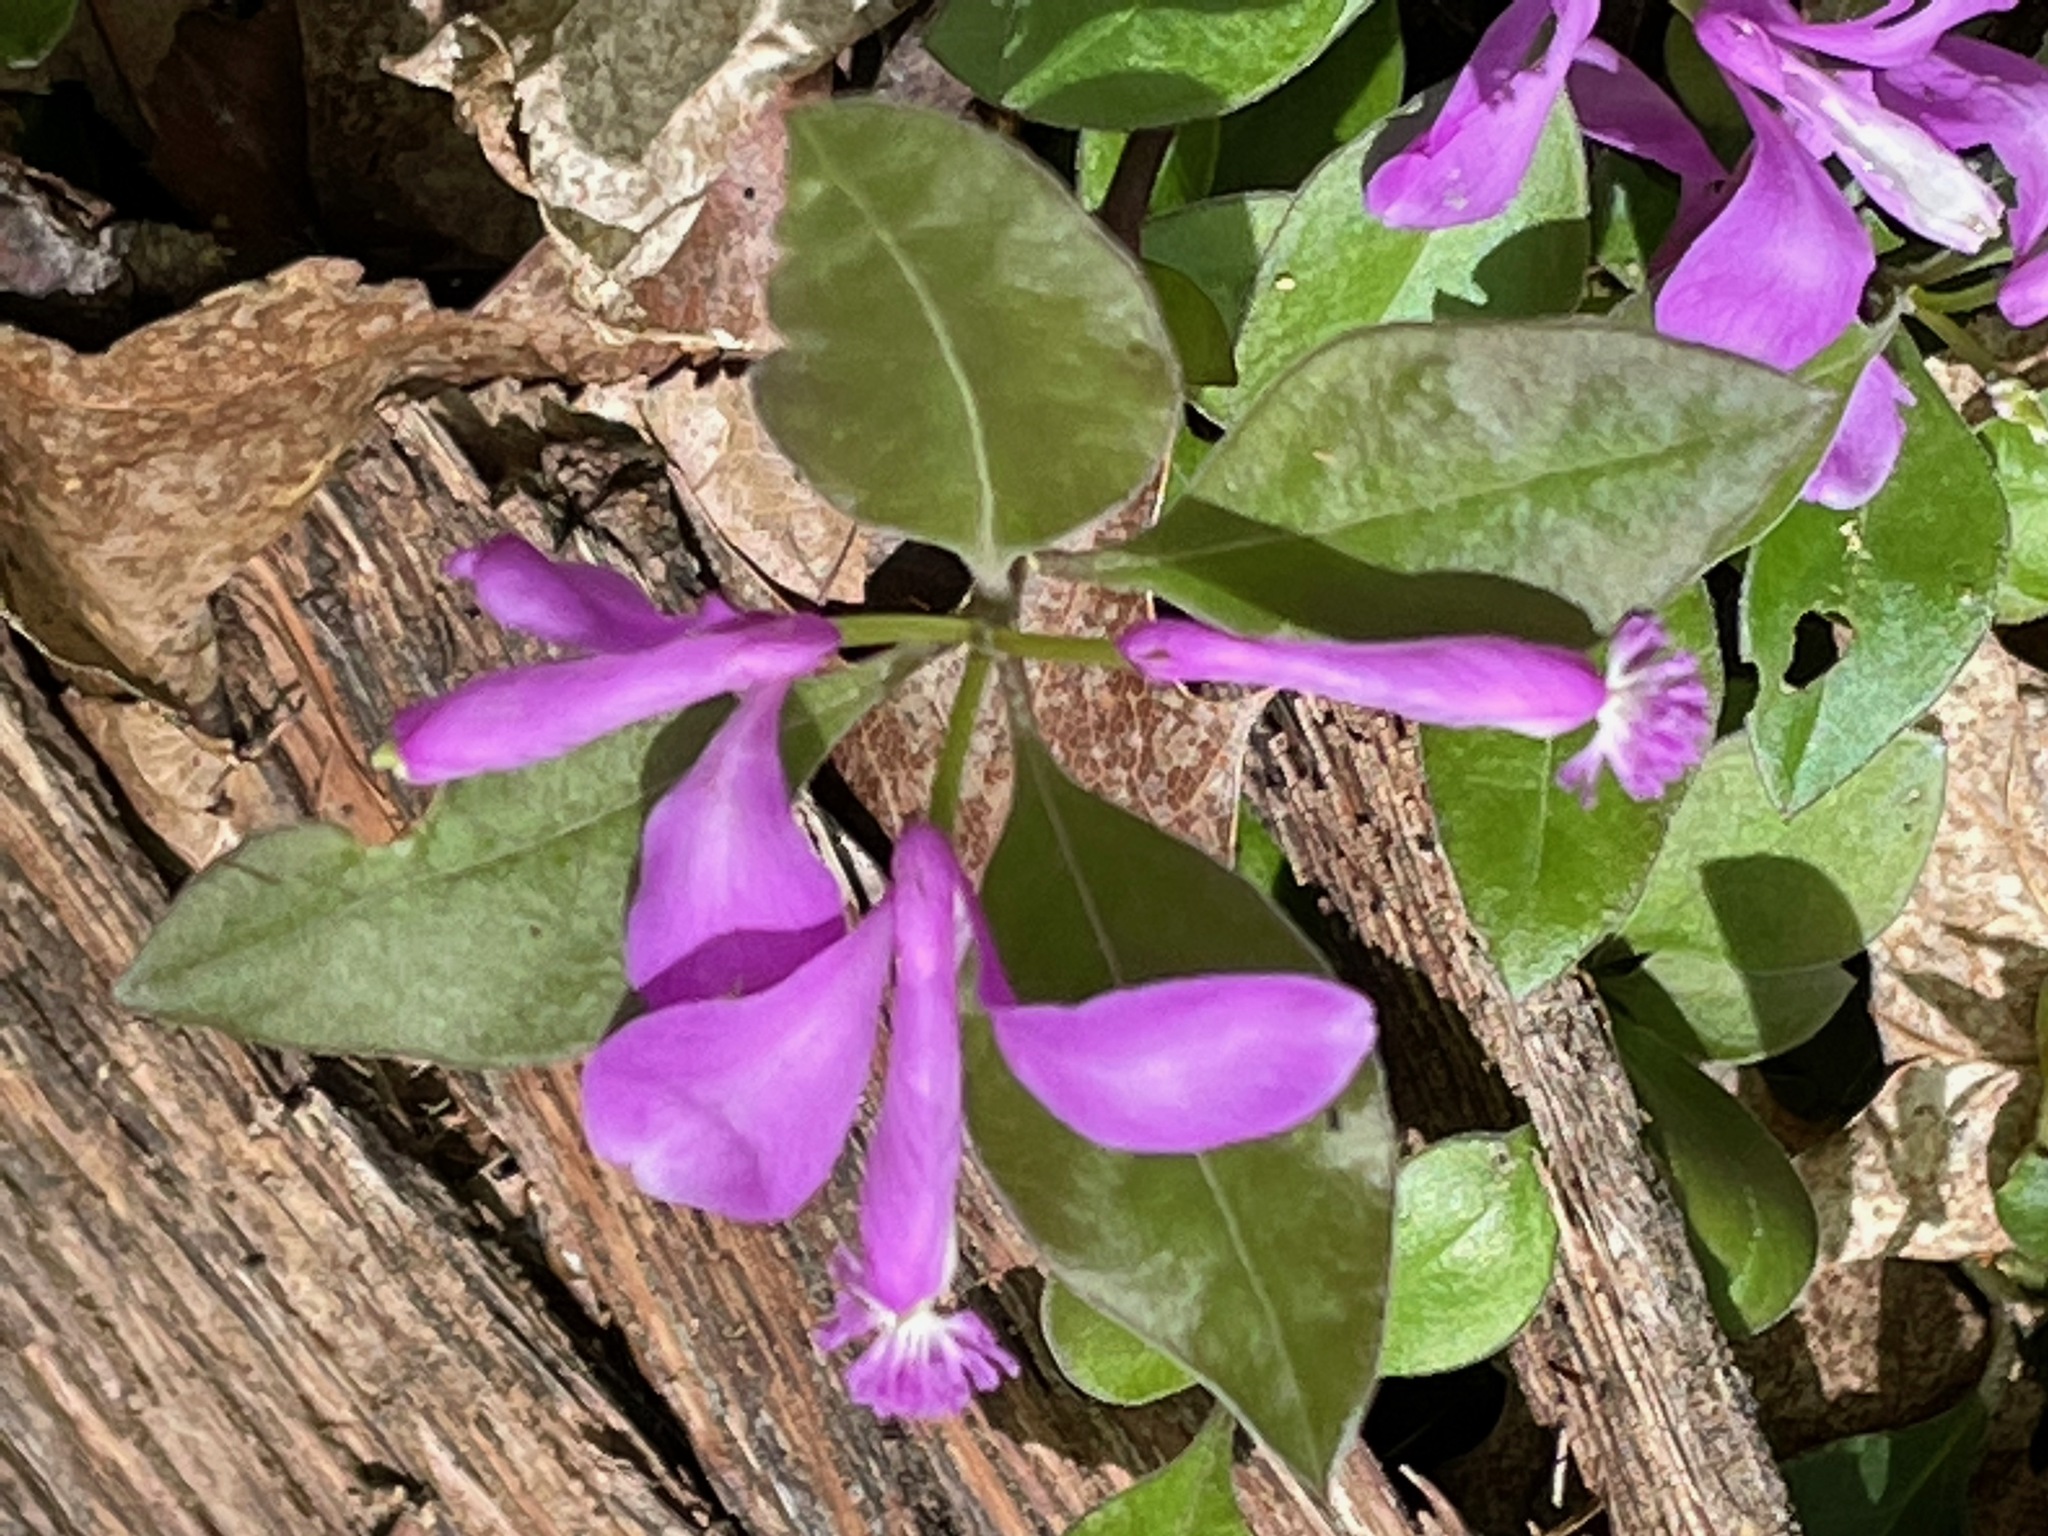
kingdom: Plantae
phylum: Tracheophyta
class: Magnoliopsida
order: Fabales
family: Polygalaceae
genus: Polygaloides
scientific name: Polygaloides paucifolia
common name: Bird-on-the-wing
